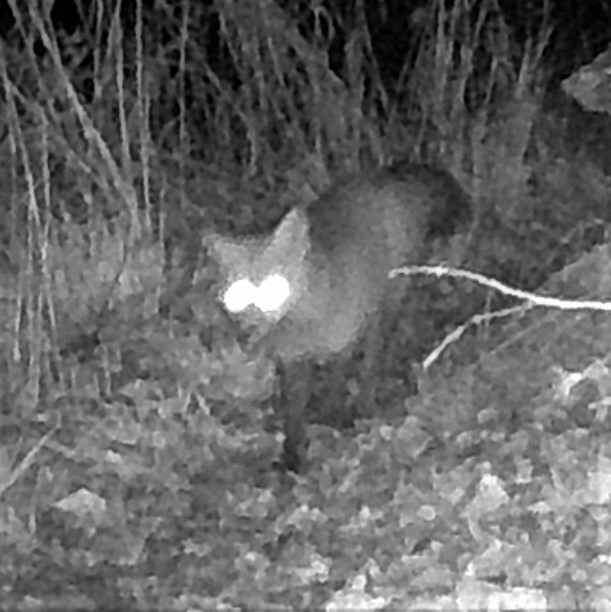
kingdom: Animalia
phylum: Chordata
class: Mammalia
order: Carnivora
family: Canidae
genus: Vulpes
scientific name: Vulpes vulpes
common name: Red fox
